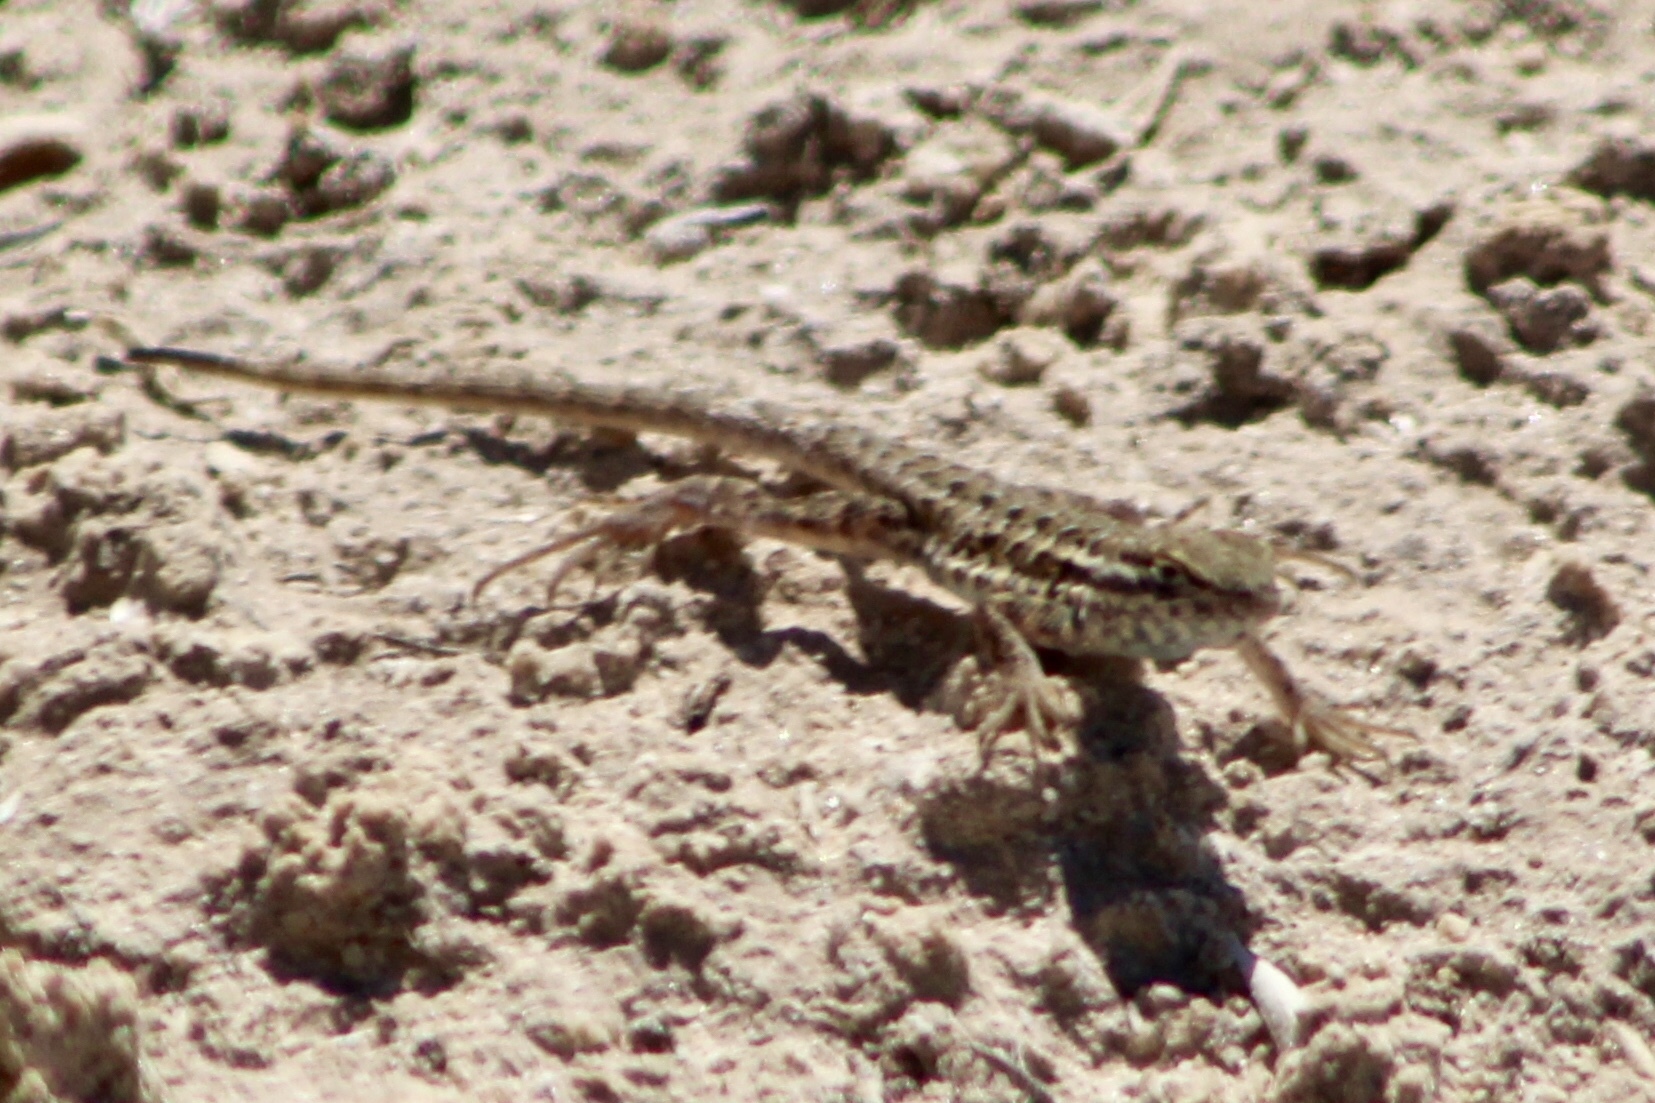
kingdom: Animalia
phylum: Chordata
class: Squamata
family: Phrynosomatidae
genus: Uta
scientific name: Uta stansburiana
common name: Side-blotched lizard
